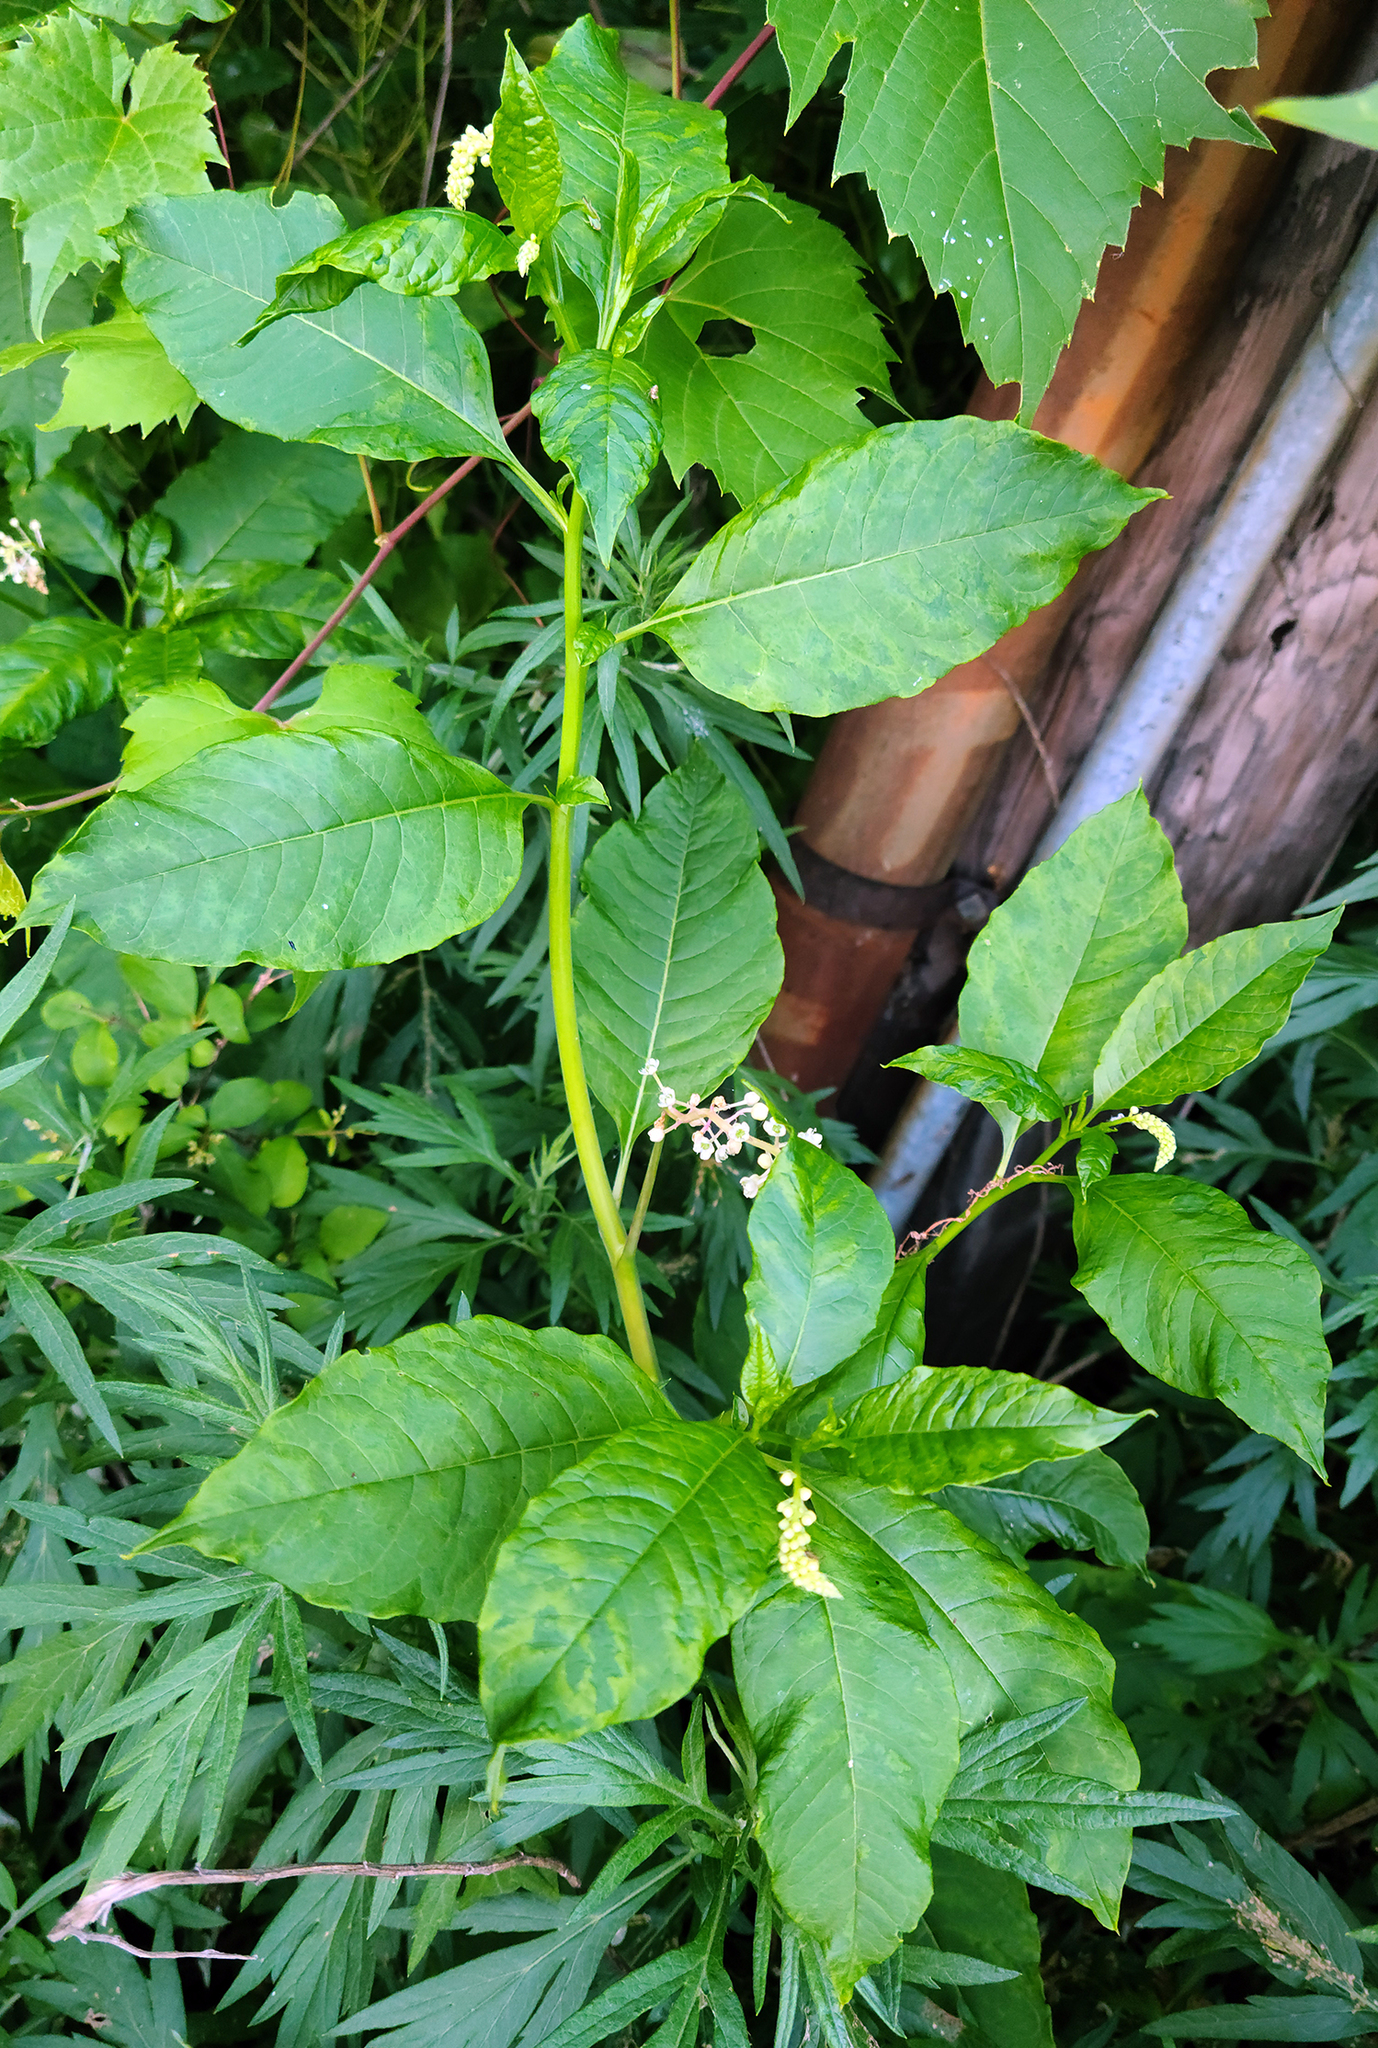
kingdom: Plantae
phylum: Tracheophyta
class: Magnoliopsida
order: Caryophyllales
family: Phytolaccaceae
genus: Phytolacca
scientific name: Phytolacca americana
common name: American pokeweed
